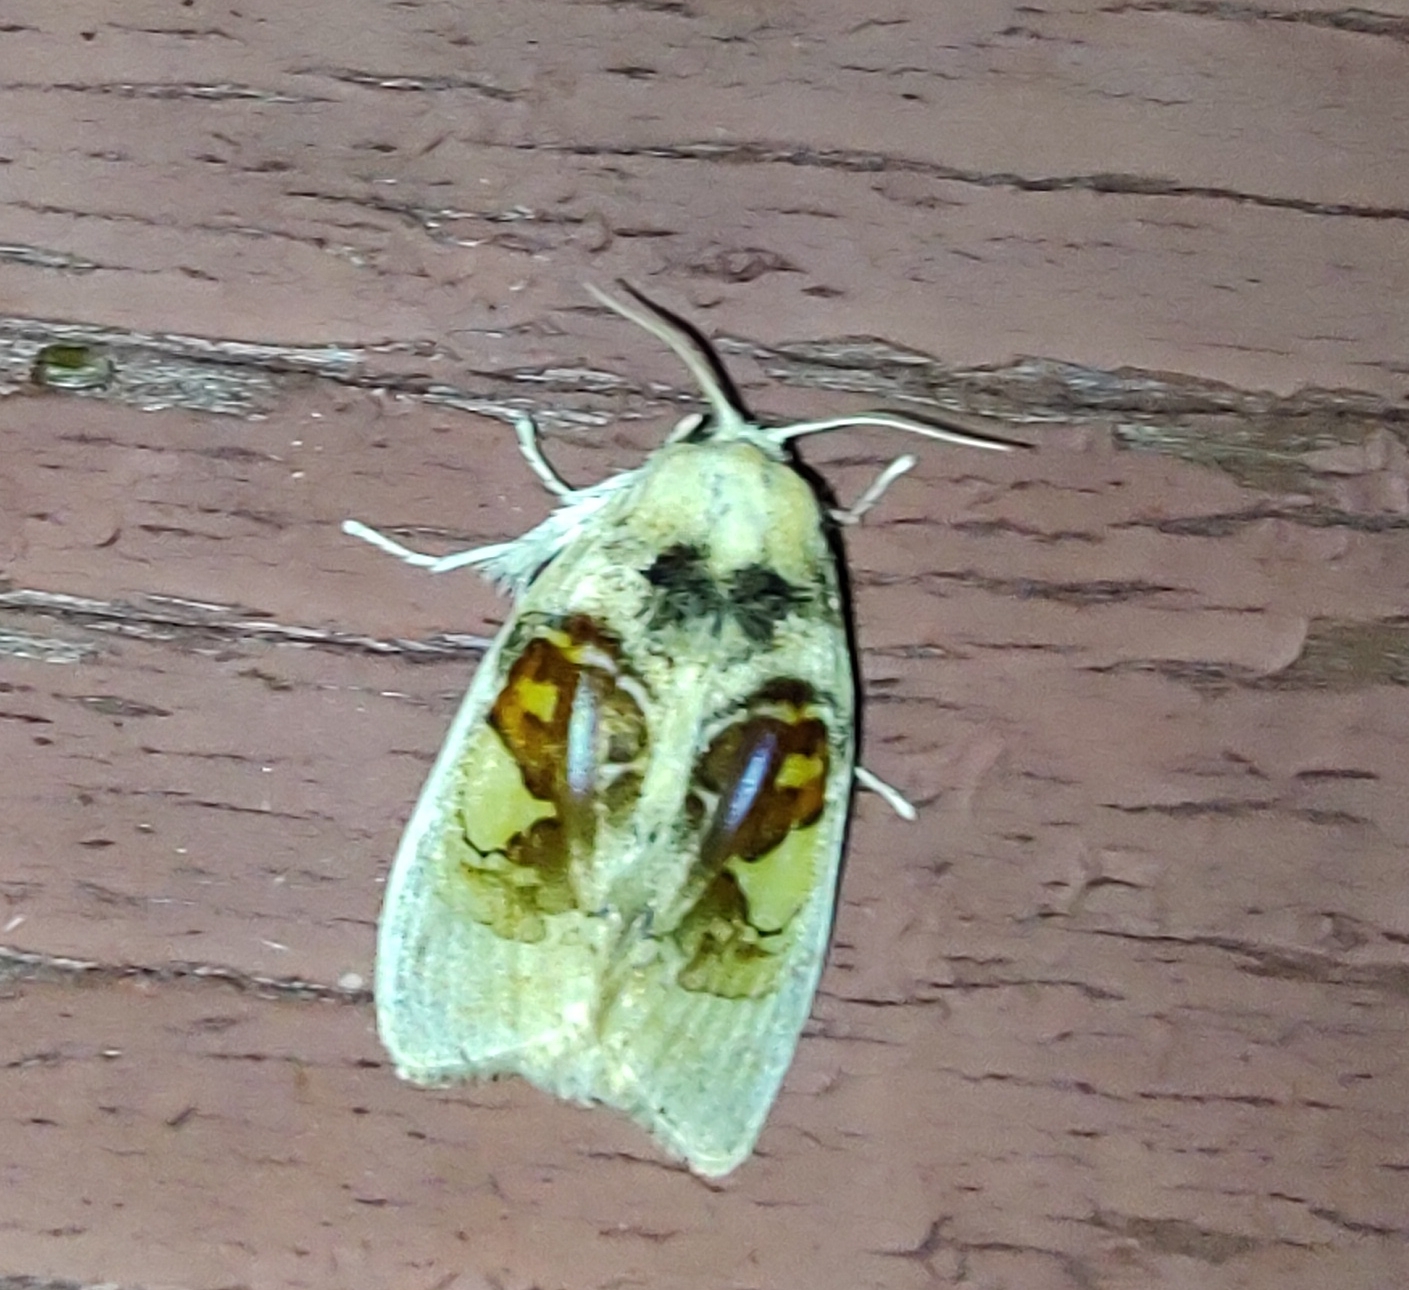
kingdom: Animalia
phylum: Arthropoda
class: Insecta
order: Lepidoptera
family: Psychidae
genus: Arrhenophanes
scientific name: Arrhenophanes perspicilla
